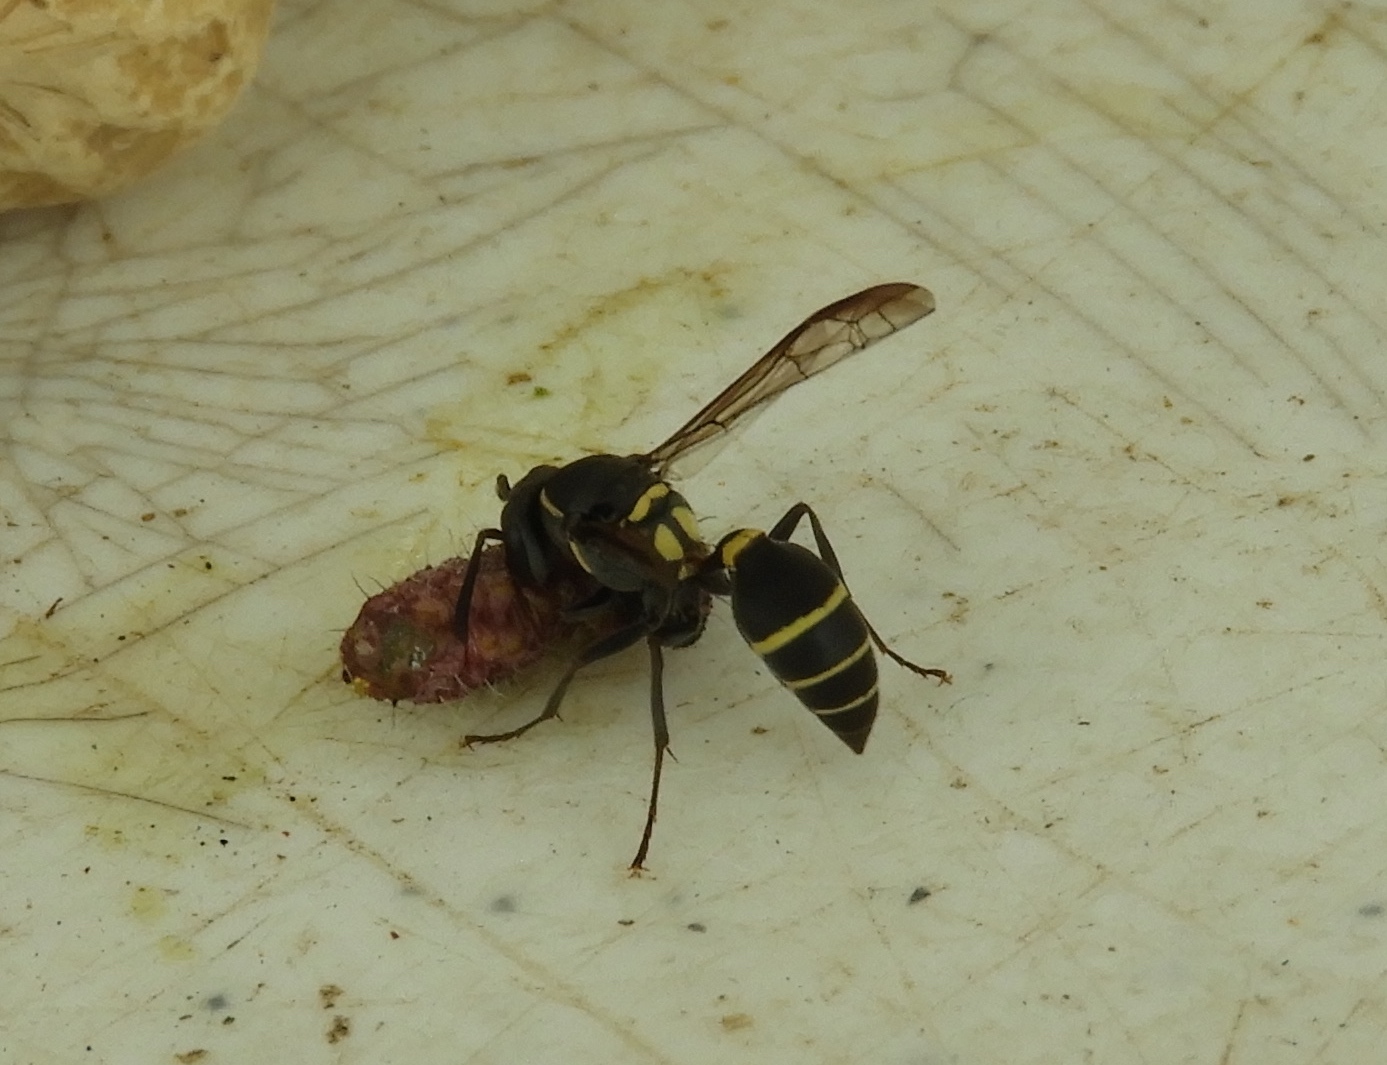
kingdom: Animalia
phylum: Arthropoda
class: Insecta
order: Hymenoptera
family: Eumenidae
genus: Polybia
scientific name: Polybia occidentalis
